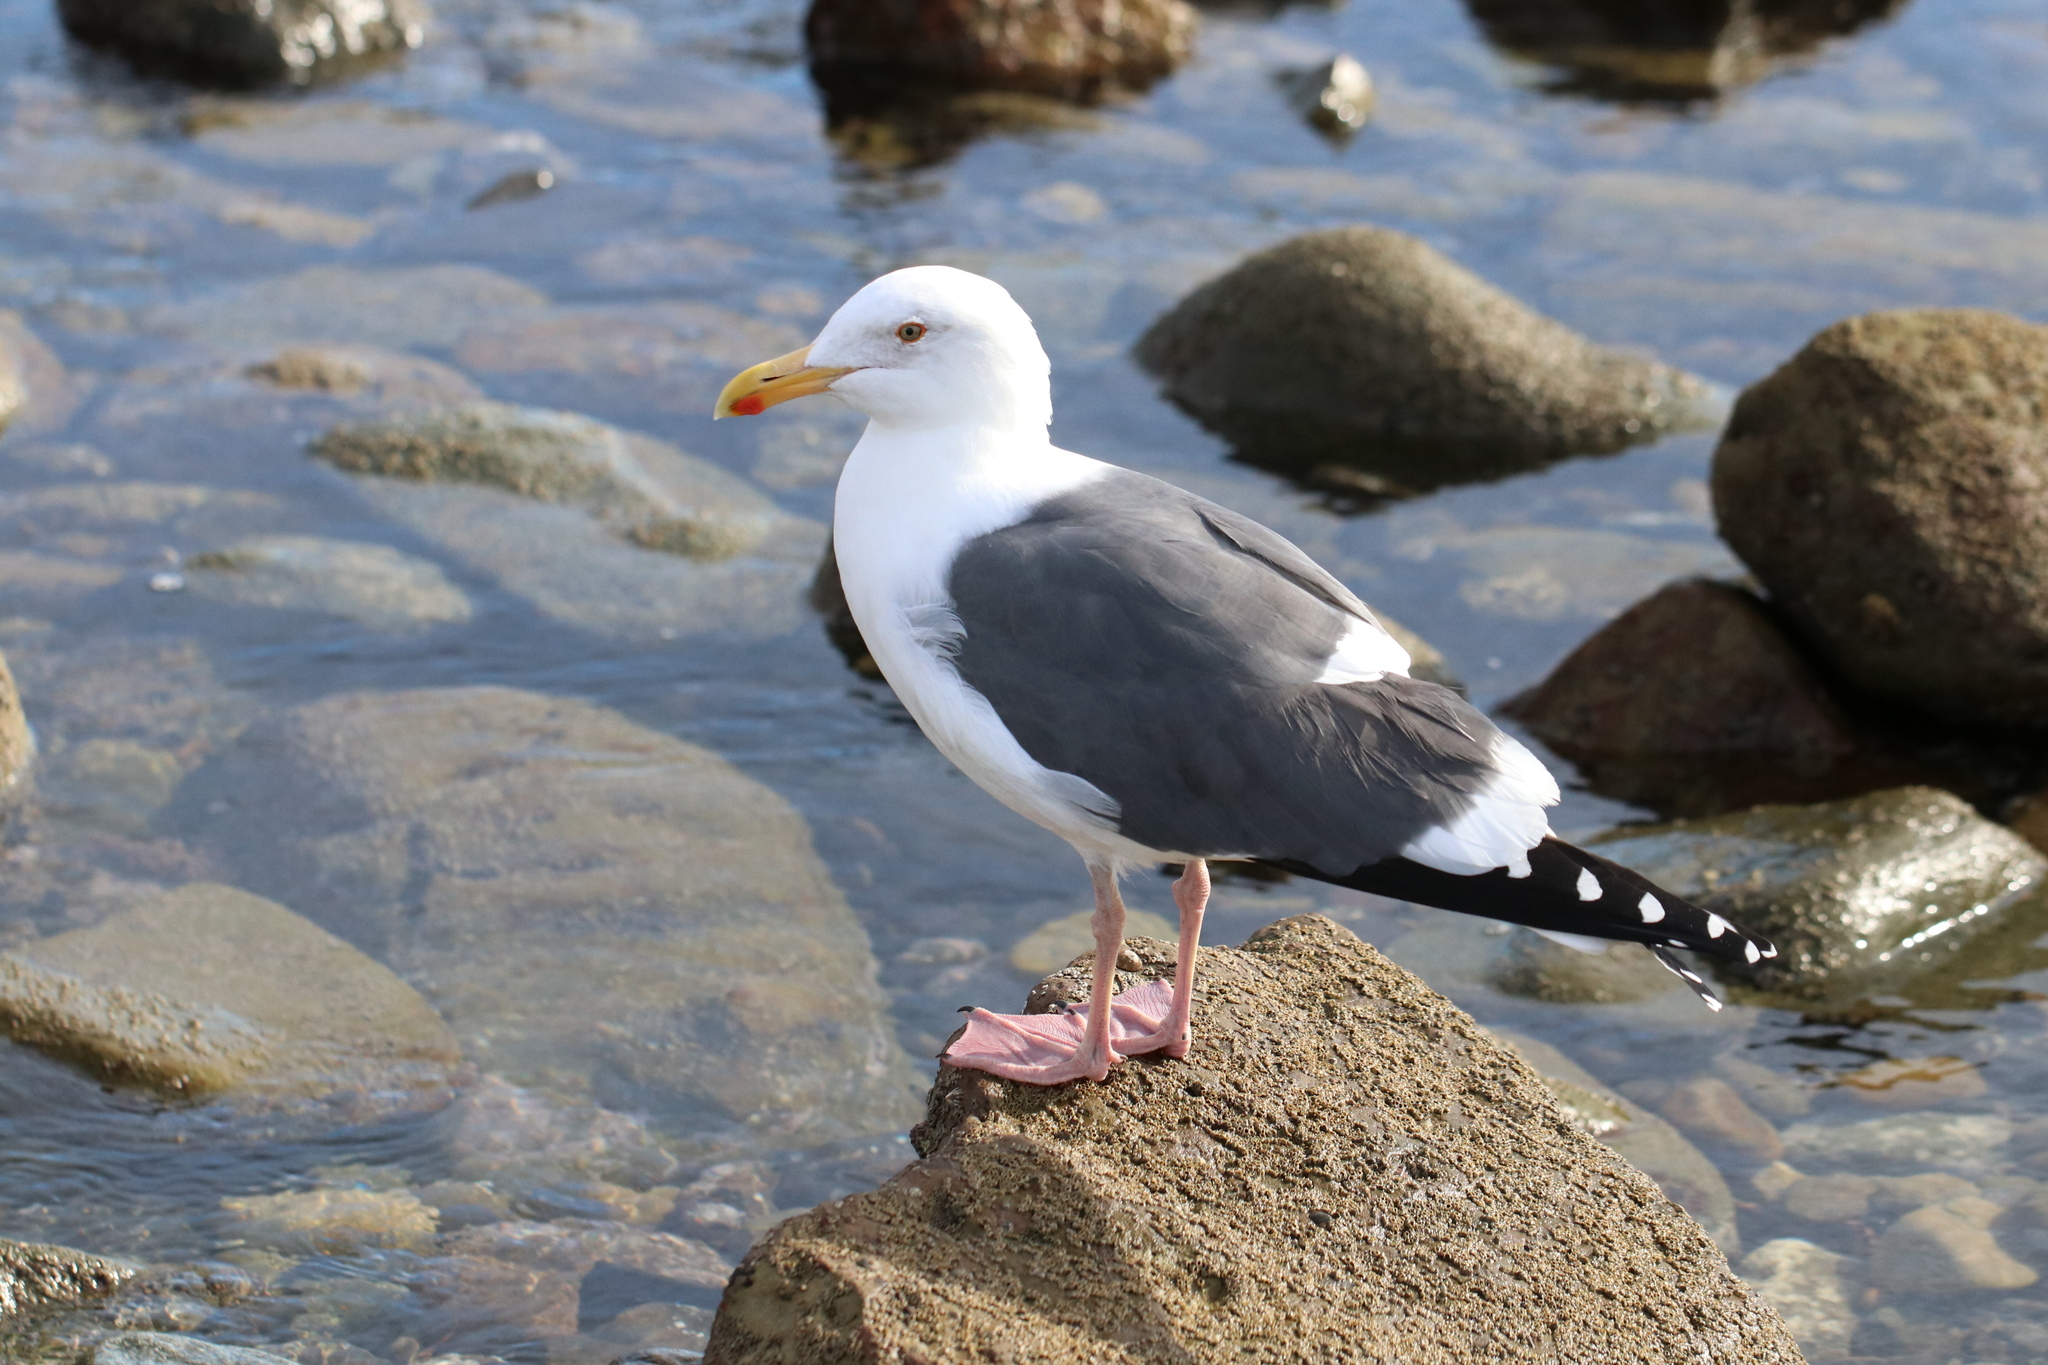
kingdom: Animalia
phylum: Chordata
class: Aves
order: Charadriiformes
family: Laridae
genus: Larus
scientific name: Larus occidentalis
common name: Western gull
